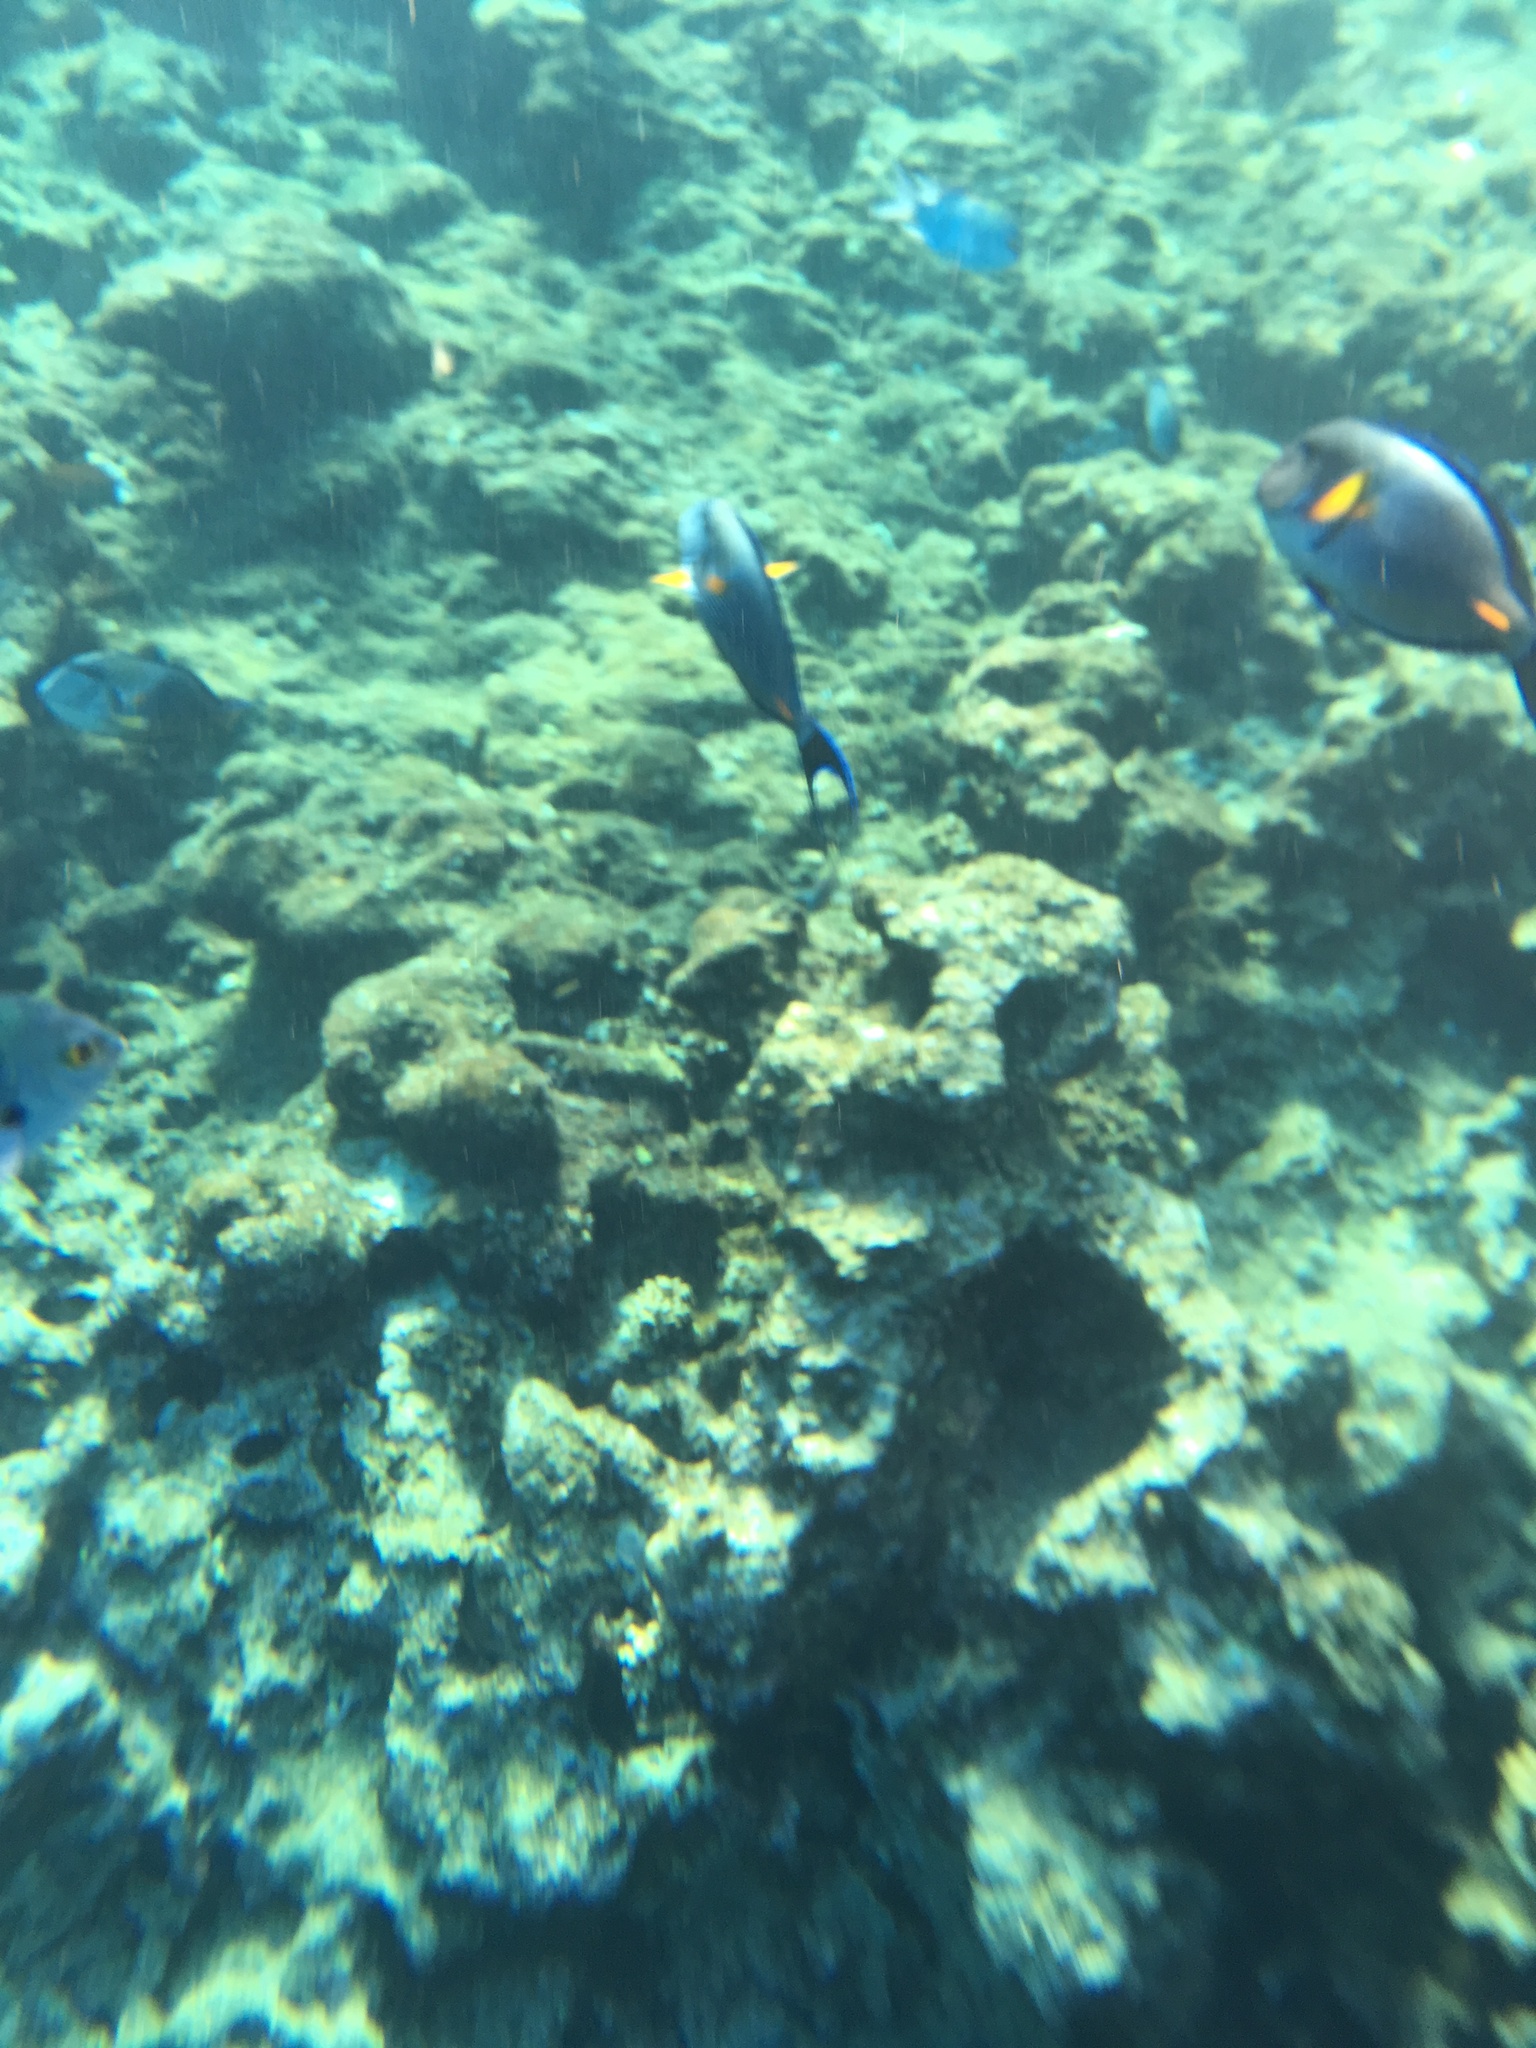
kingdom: Animalia
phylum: Chordata
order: Perciformes
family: Acanthuridae
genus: Acanthurus
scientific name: Acanthurus sohal
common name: Red sea surgeonfish
